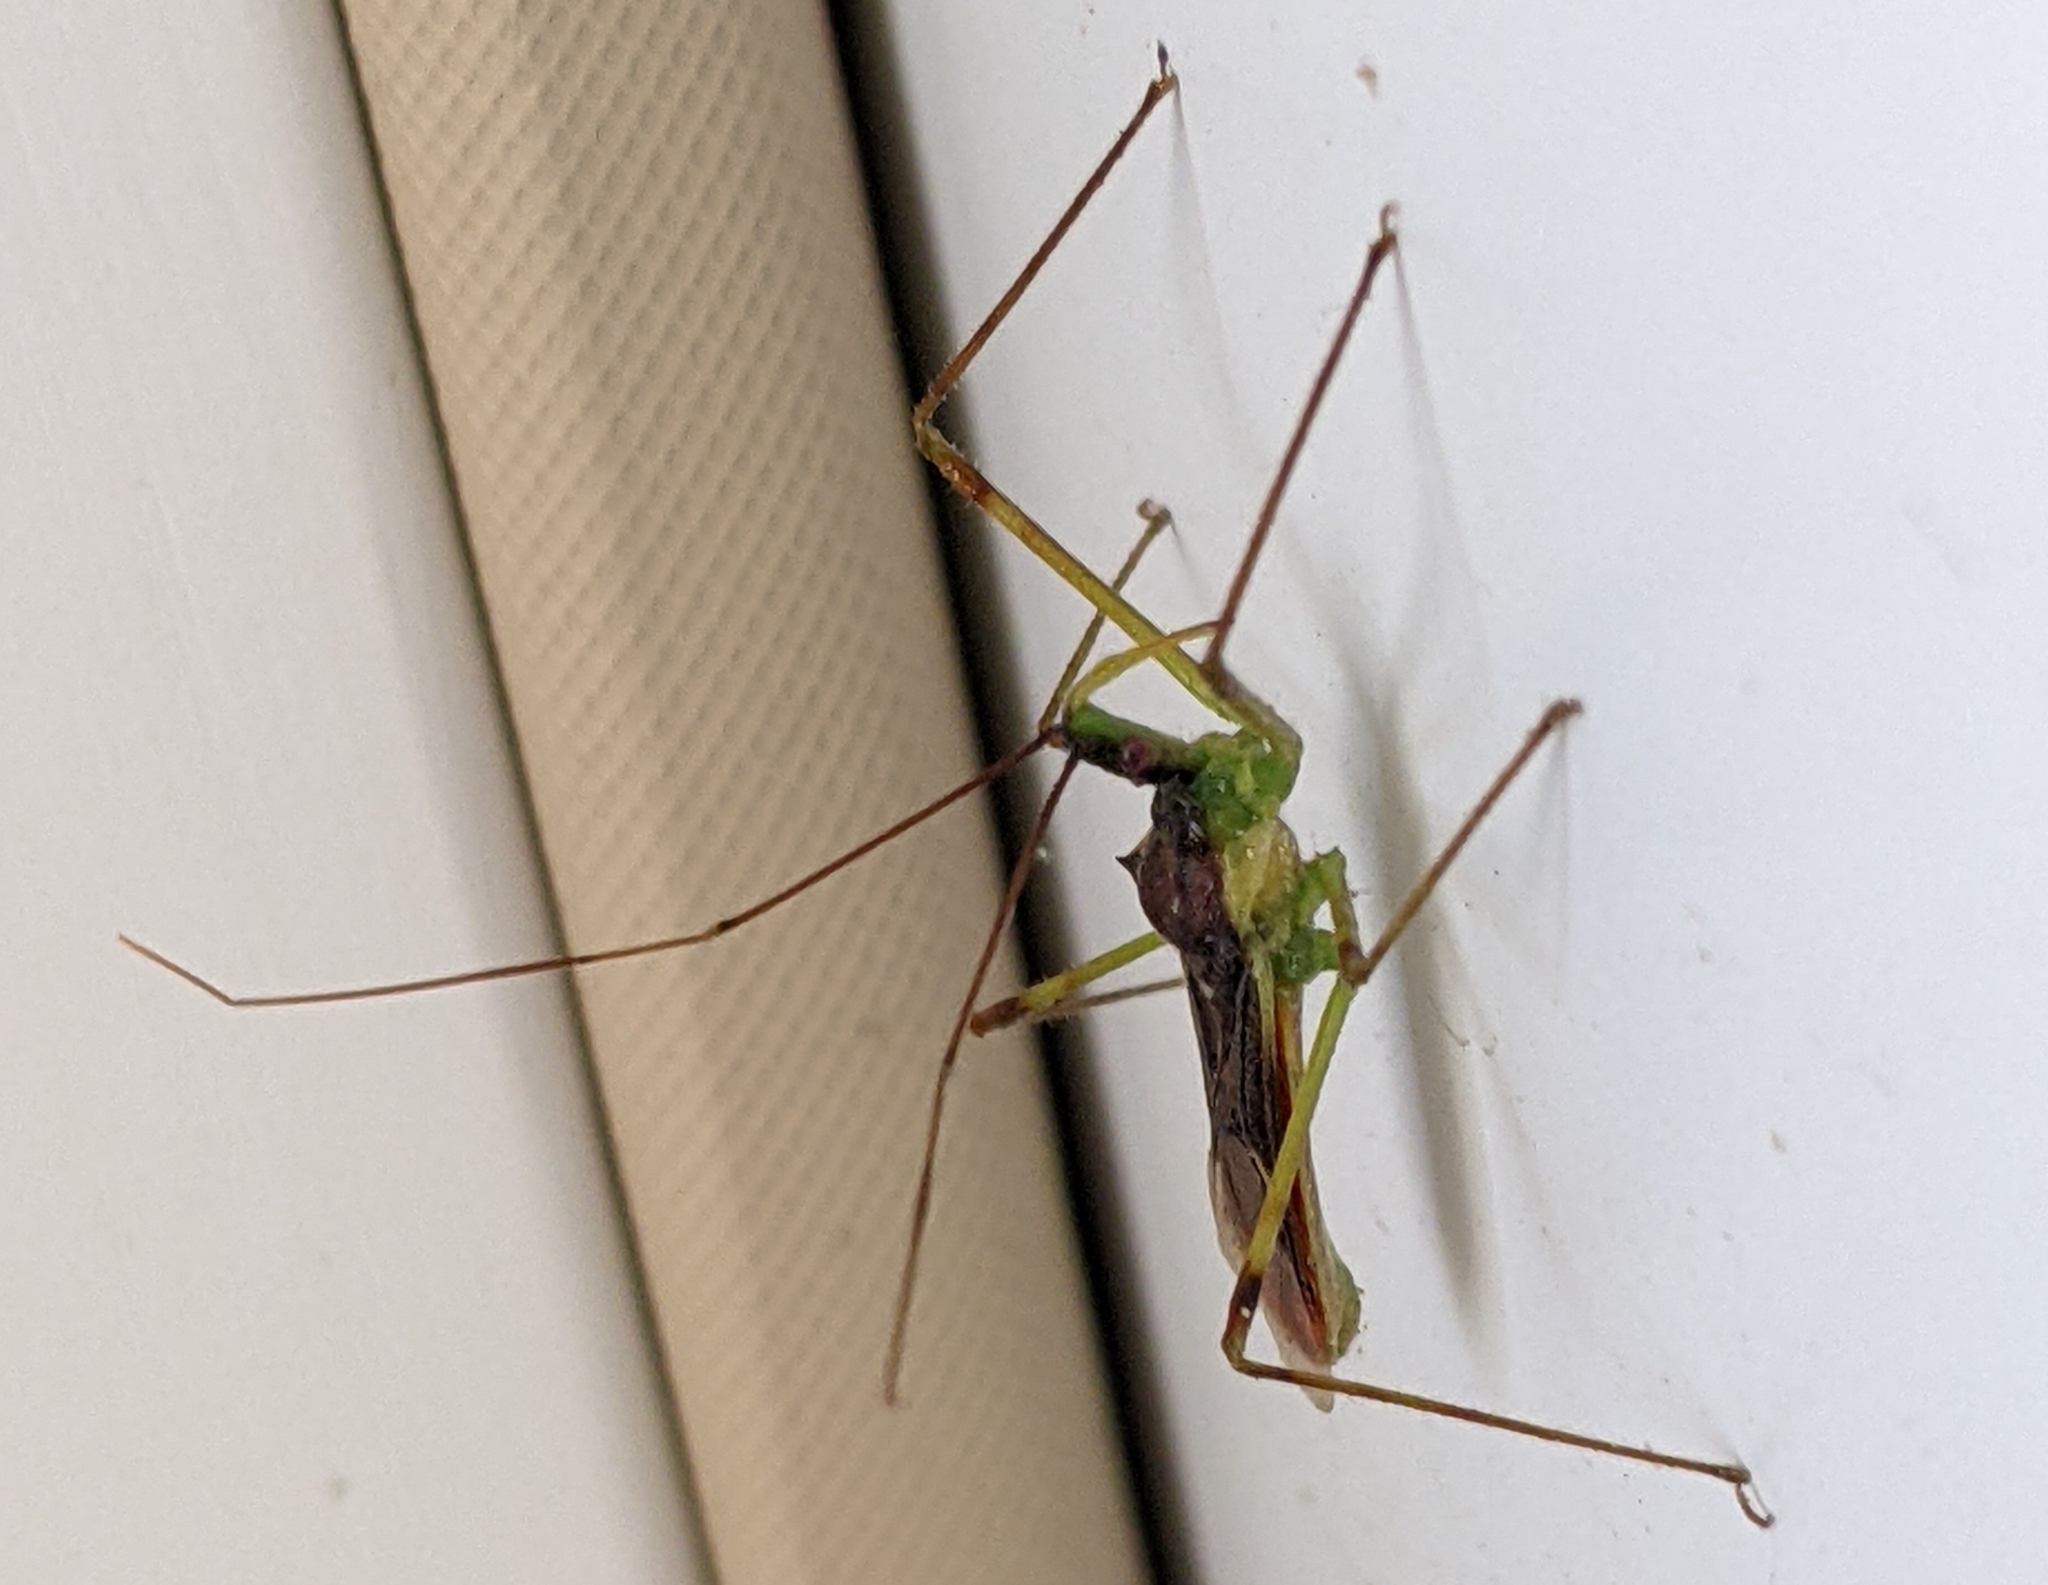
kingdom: Animalia
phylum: Arthropoda
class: Insecta
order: Hemiptera
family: Reduviidae
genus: Zelus
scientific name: Zelus luridus
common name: Pale green assassin bug
